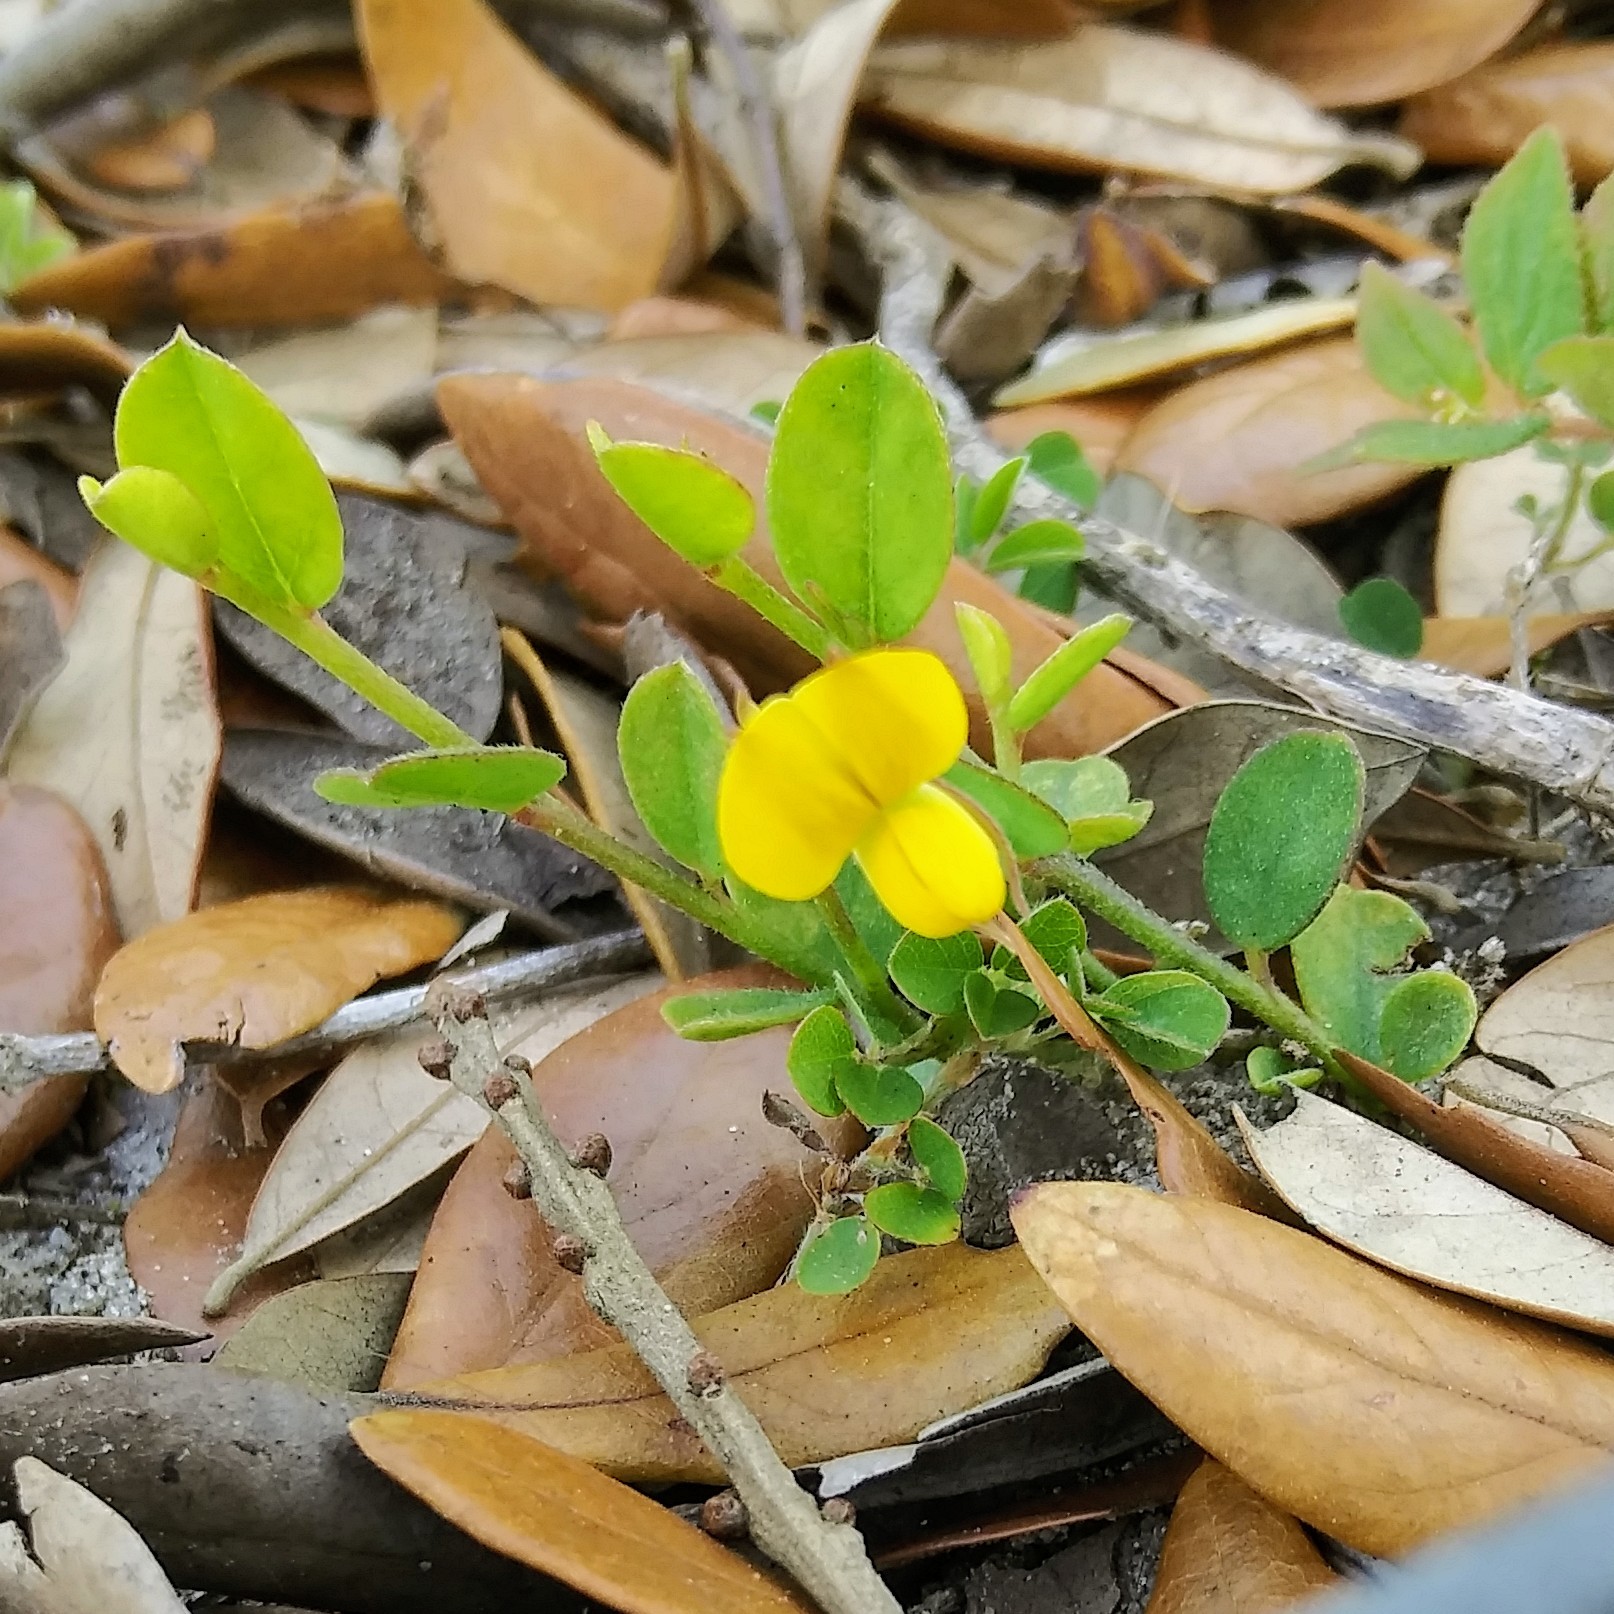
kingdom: Plantae
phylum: Tracheophyta
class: Magnoliopsida
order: Fabales
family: Fabaceae
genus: Crotalaria
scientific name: Crotalaria rotundifolia
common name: Prostrate rattlebox
